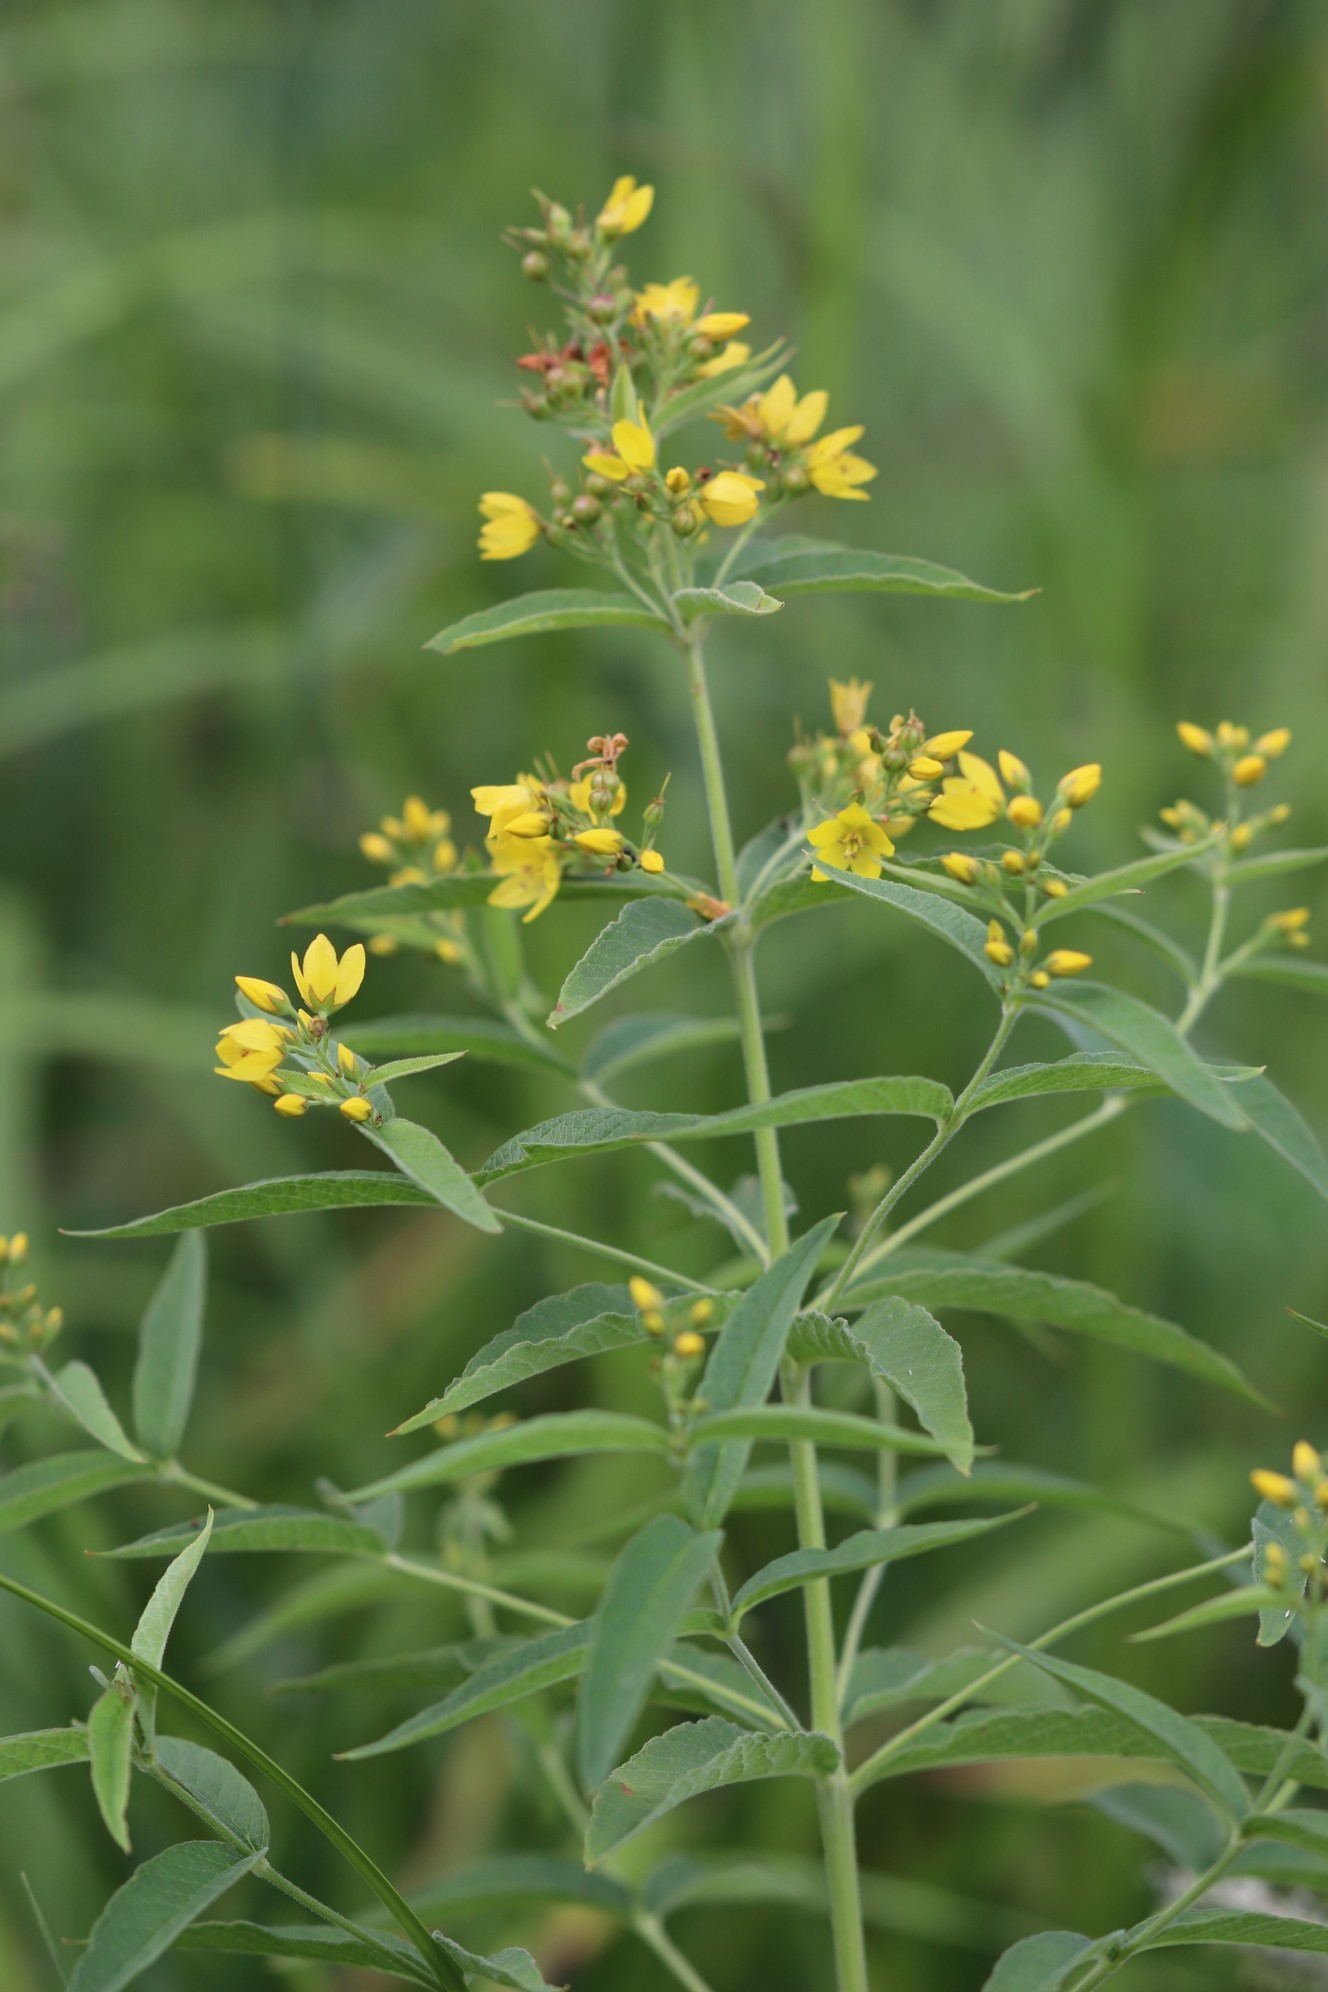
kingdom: Plantae
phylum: Tracheophyta
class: Magnoliopsida
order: Ericales
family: Primulaceae
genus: Lysimachia
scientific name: Lysimachia vulgaris
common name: Yellow loosestrife
